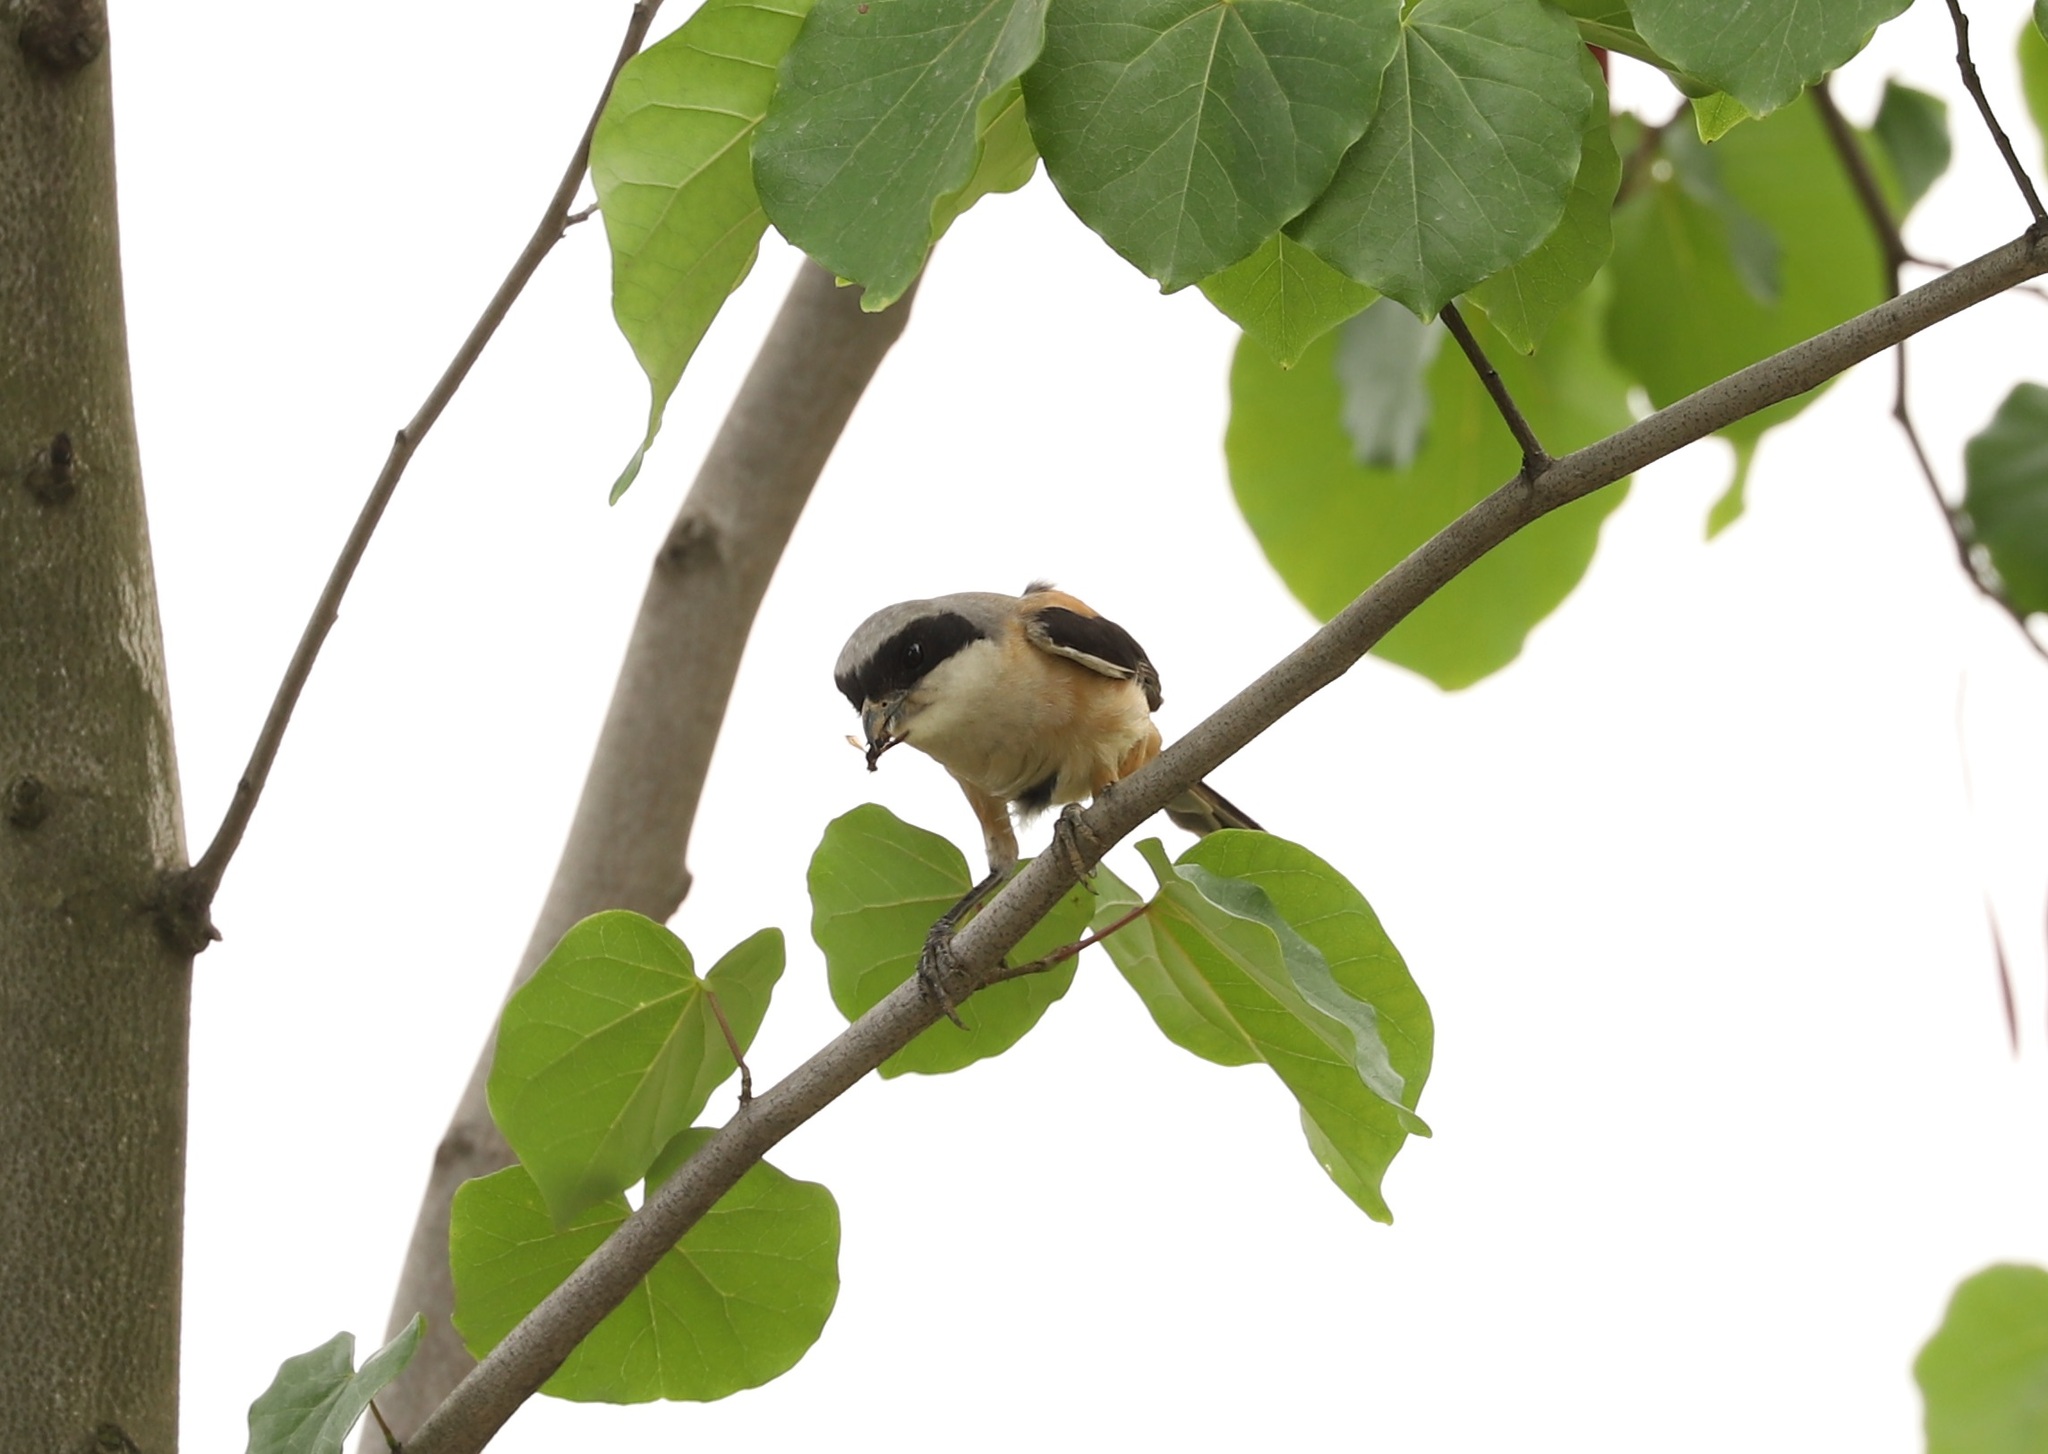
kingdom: Animalia
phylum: Chordata
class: Aves
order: Passeriformes
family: Laniidae
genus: Lanius
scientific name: Lanius schach
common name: Long-tailed shrike
